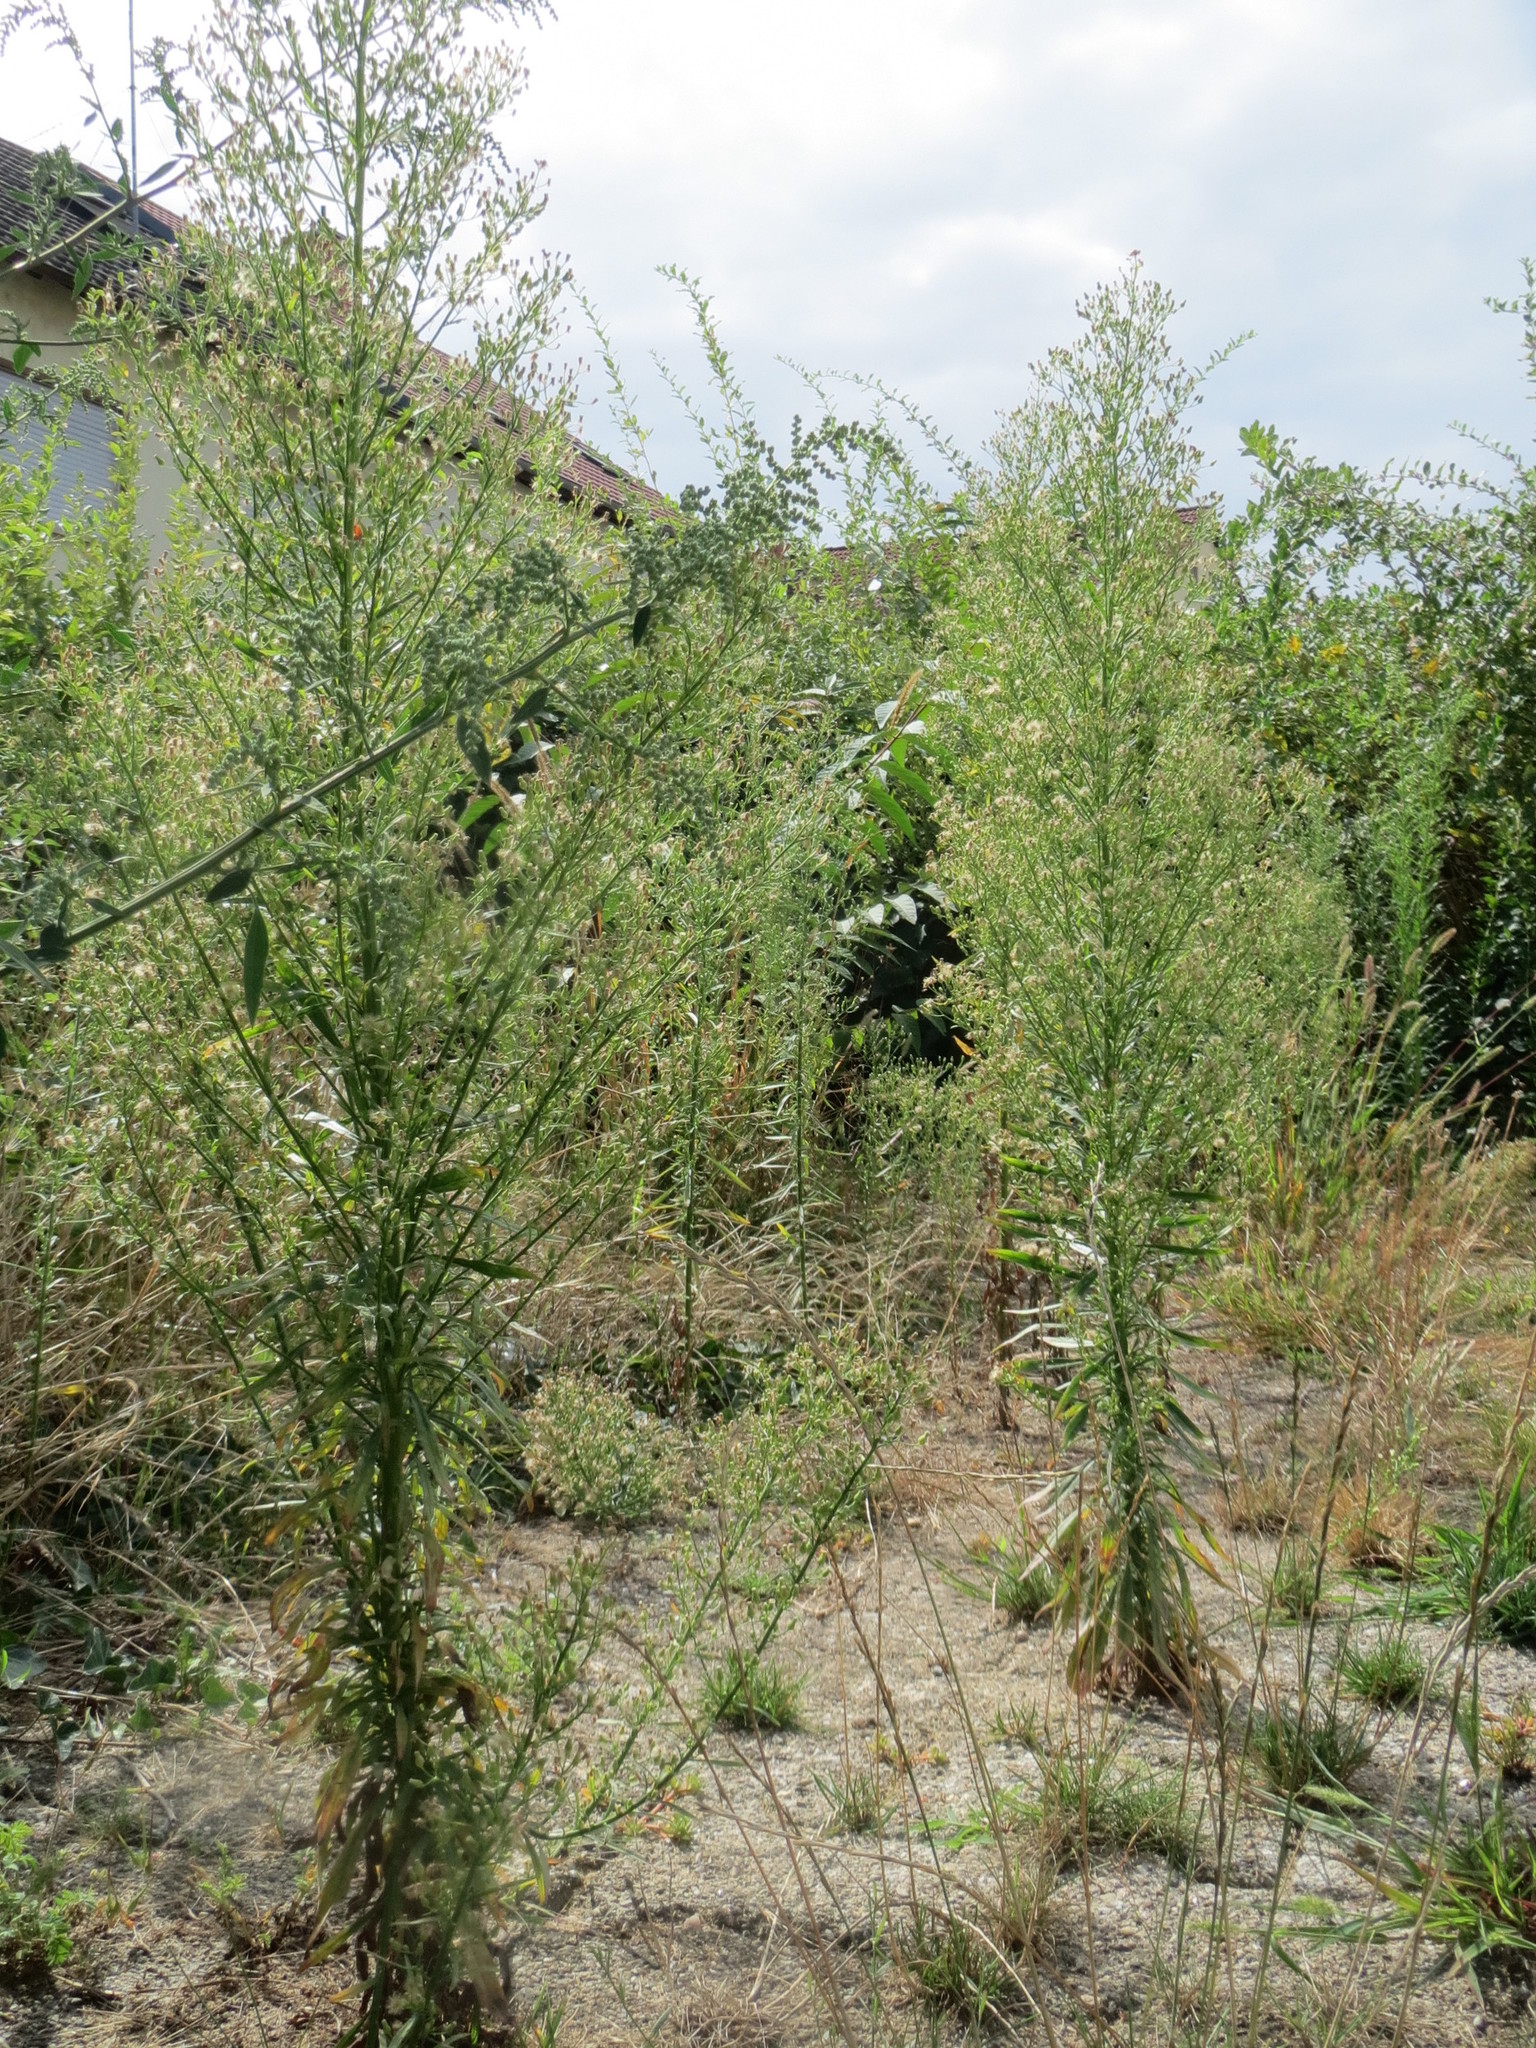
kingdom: Plantae
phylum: Tracheophyta
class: Magnoliopsida
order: Asterales
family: Asteraceae
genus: Erigeron
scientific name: Erigeron canadensis
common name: Canadian fleabane
